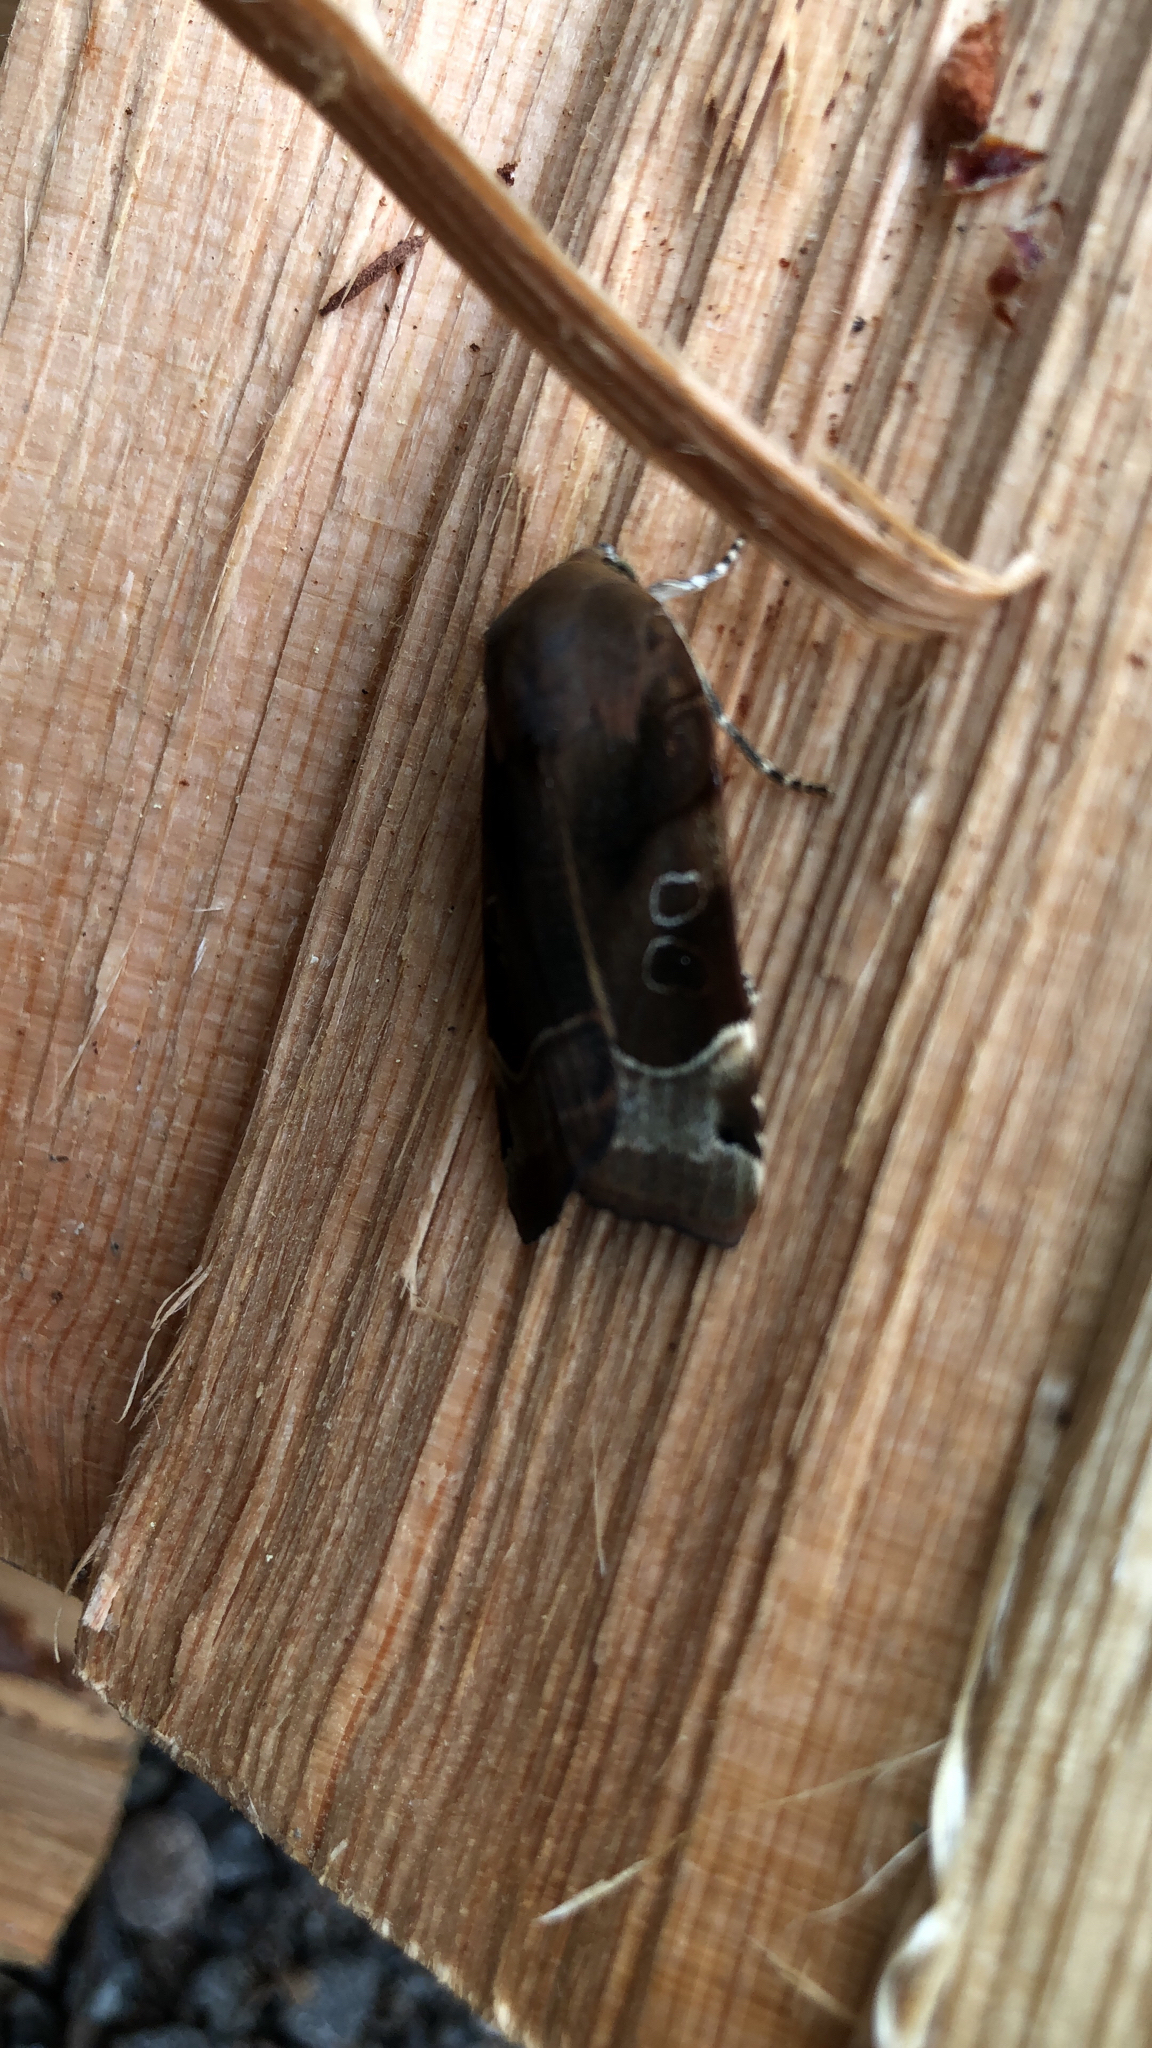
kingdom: Animalia
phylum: Arthropoda
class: Insecta
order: Lepidoptera
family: Noctuidae
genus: Noctua
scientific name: Noctua fimbriata
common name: Broad-bordered yellow underwing
